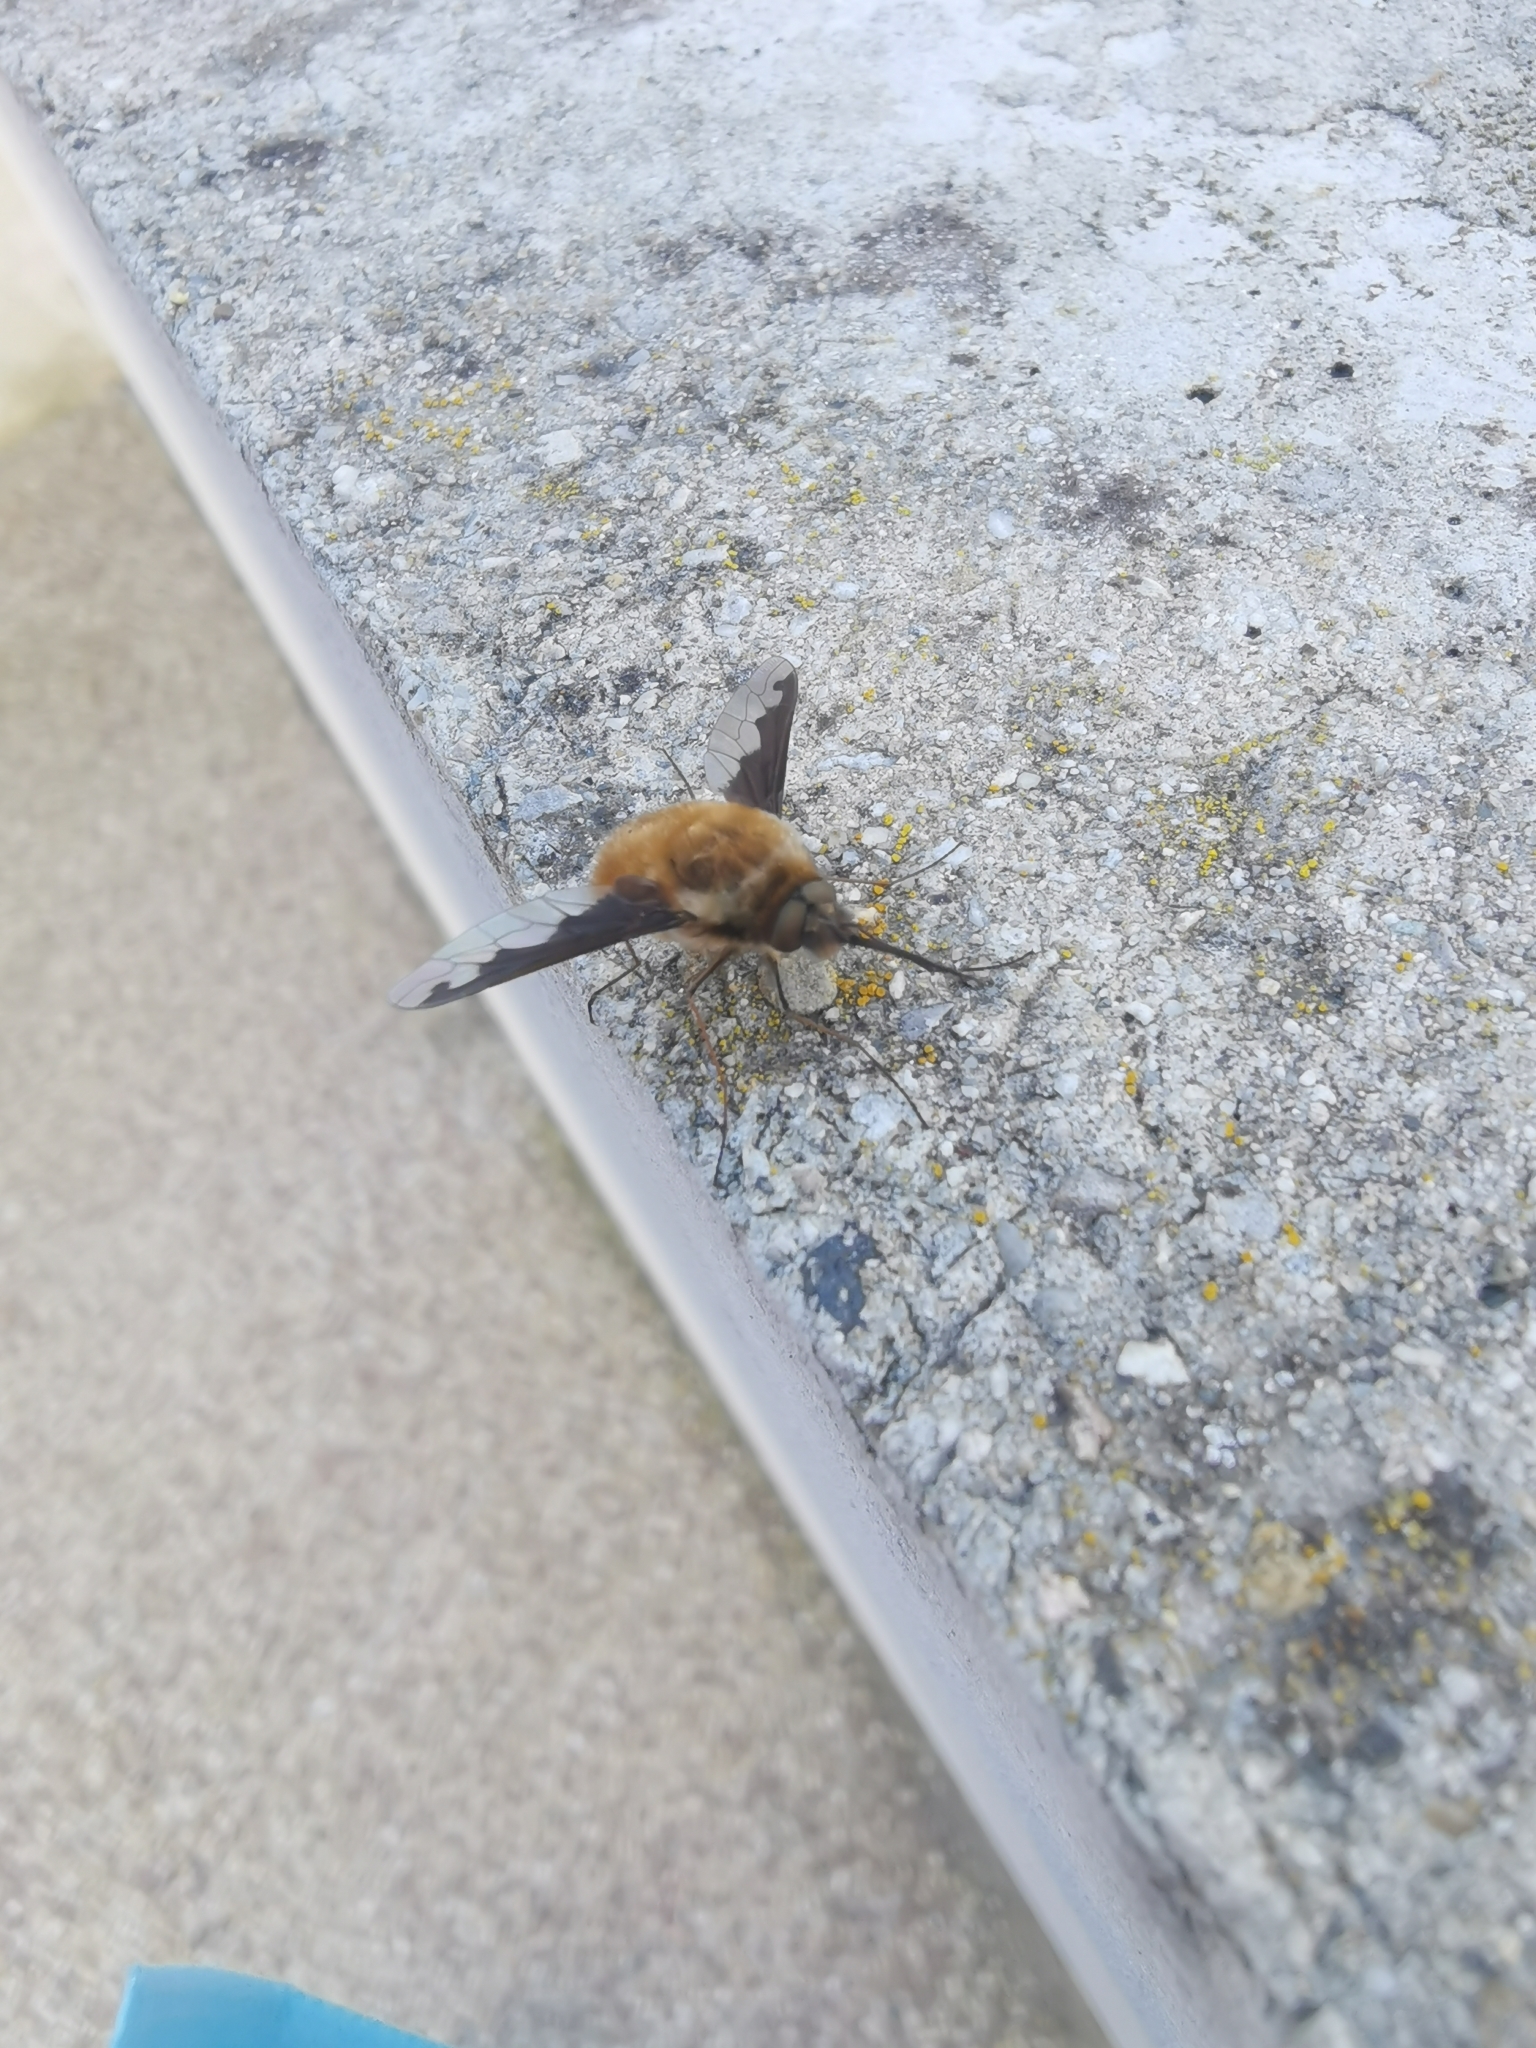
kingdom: Animalia
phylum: Arthropoda
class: Insecta
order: Diptera
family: Bombyliidae
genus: Bombylius
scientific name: Bombylius major
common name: Bee fly
